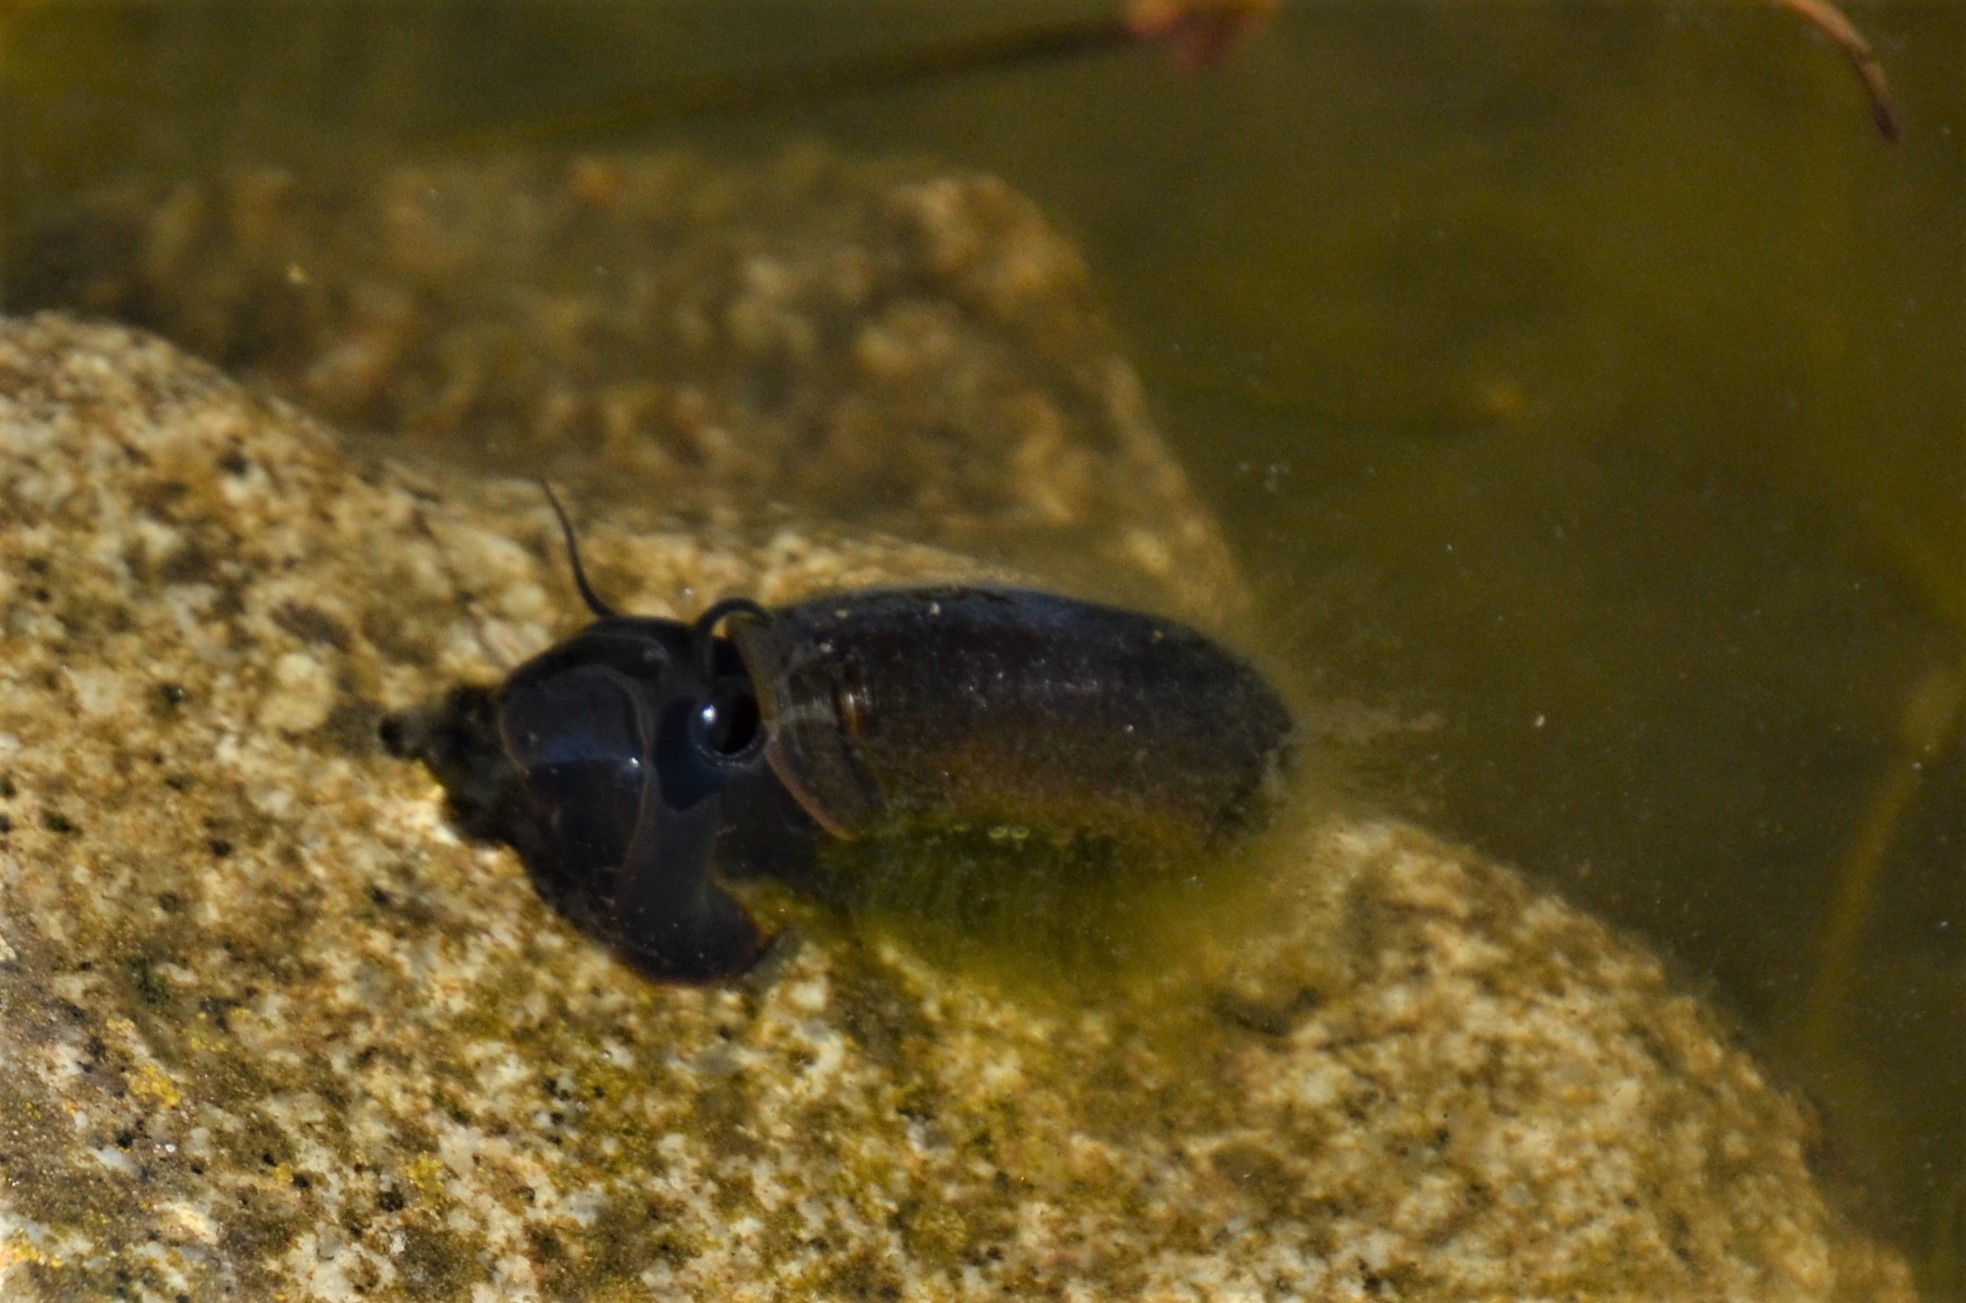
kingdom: Animalia
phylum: Mollusca
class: Gastropoda
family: Planorbidae
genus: Planorbarius
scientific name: Planorbarius corneus
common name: Great ramshorn
